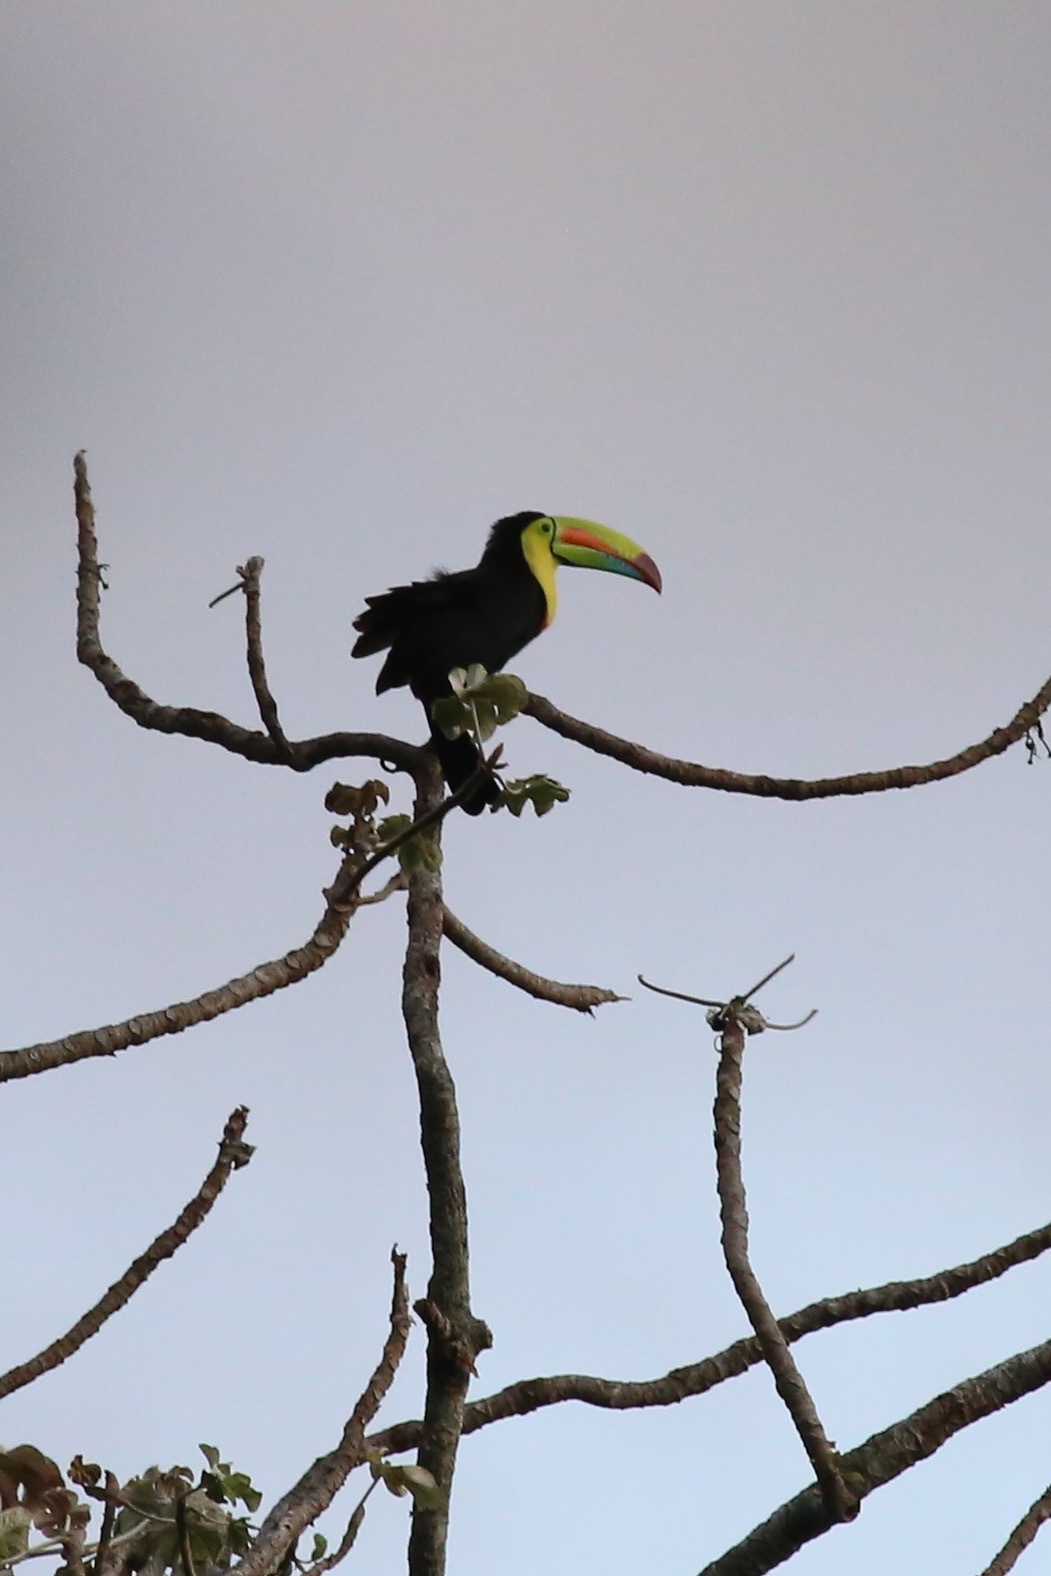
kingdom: Animalia
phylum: Chordata
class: Aves
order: Piciformes
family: Ramphastidae
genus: Ramphastos
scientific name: Ramphastos sulfuratus
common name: Keel-billed toucan
